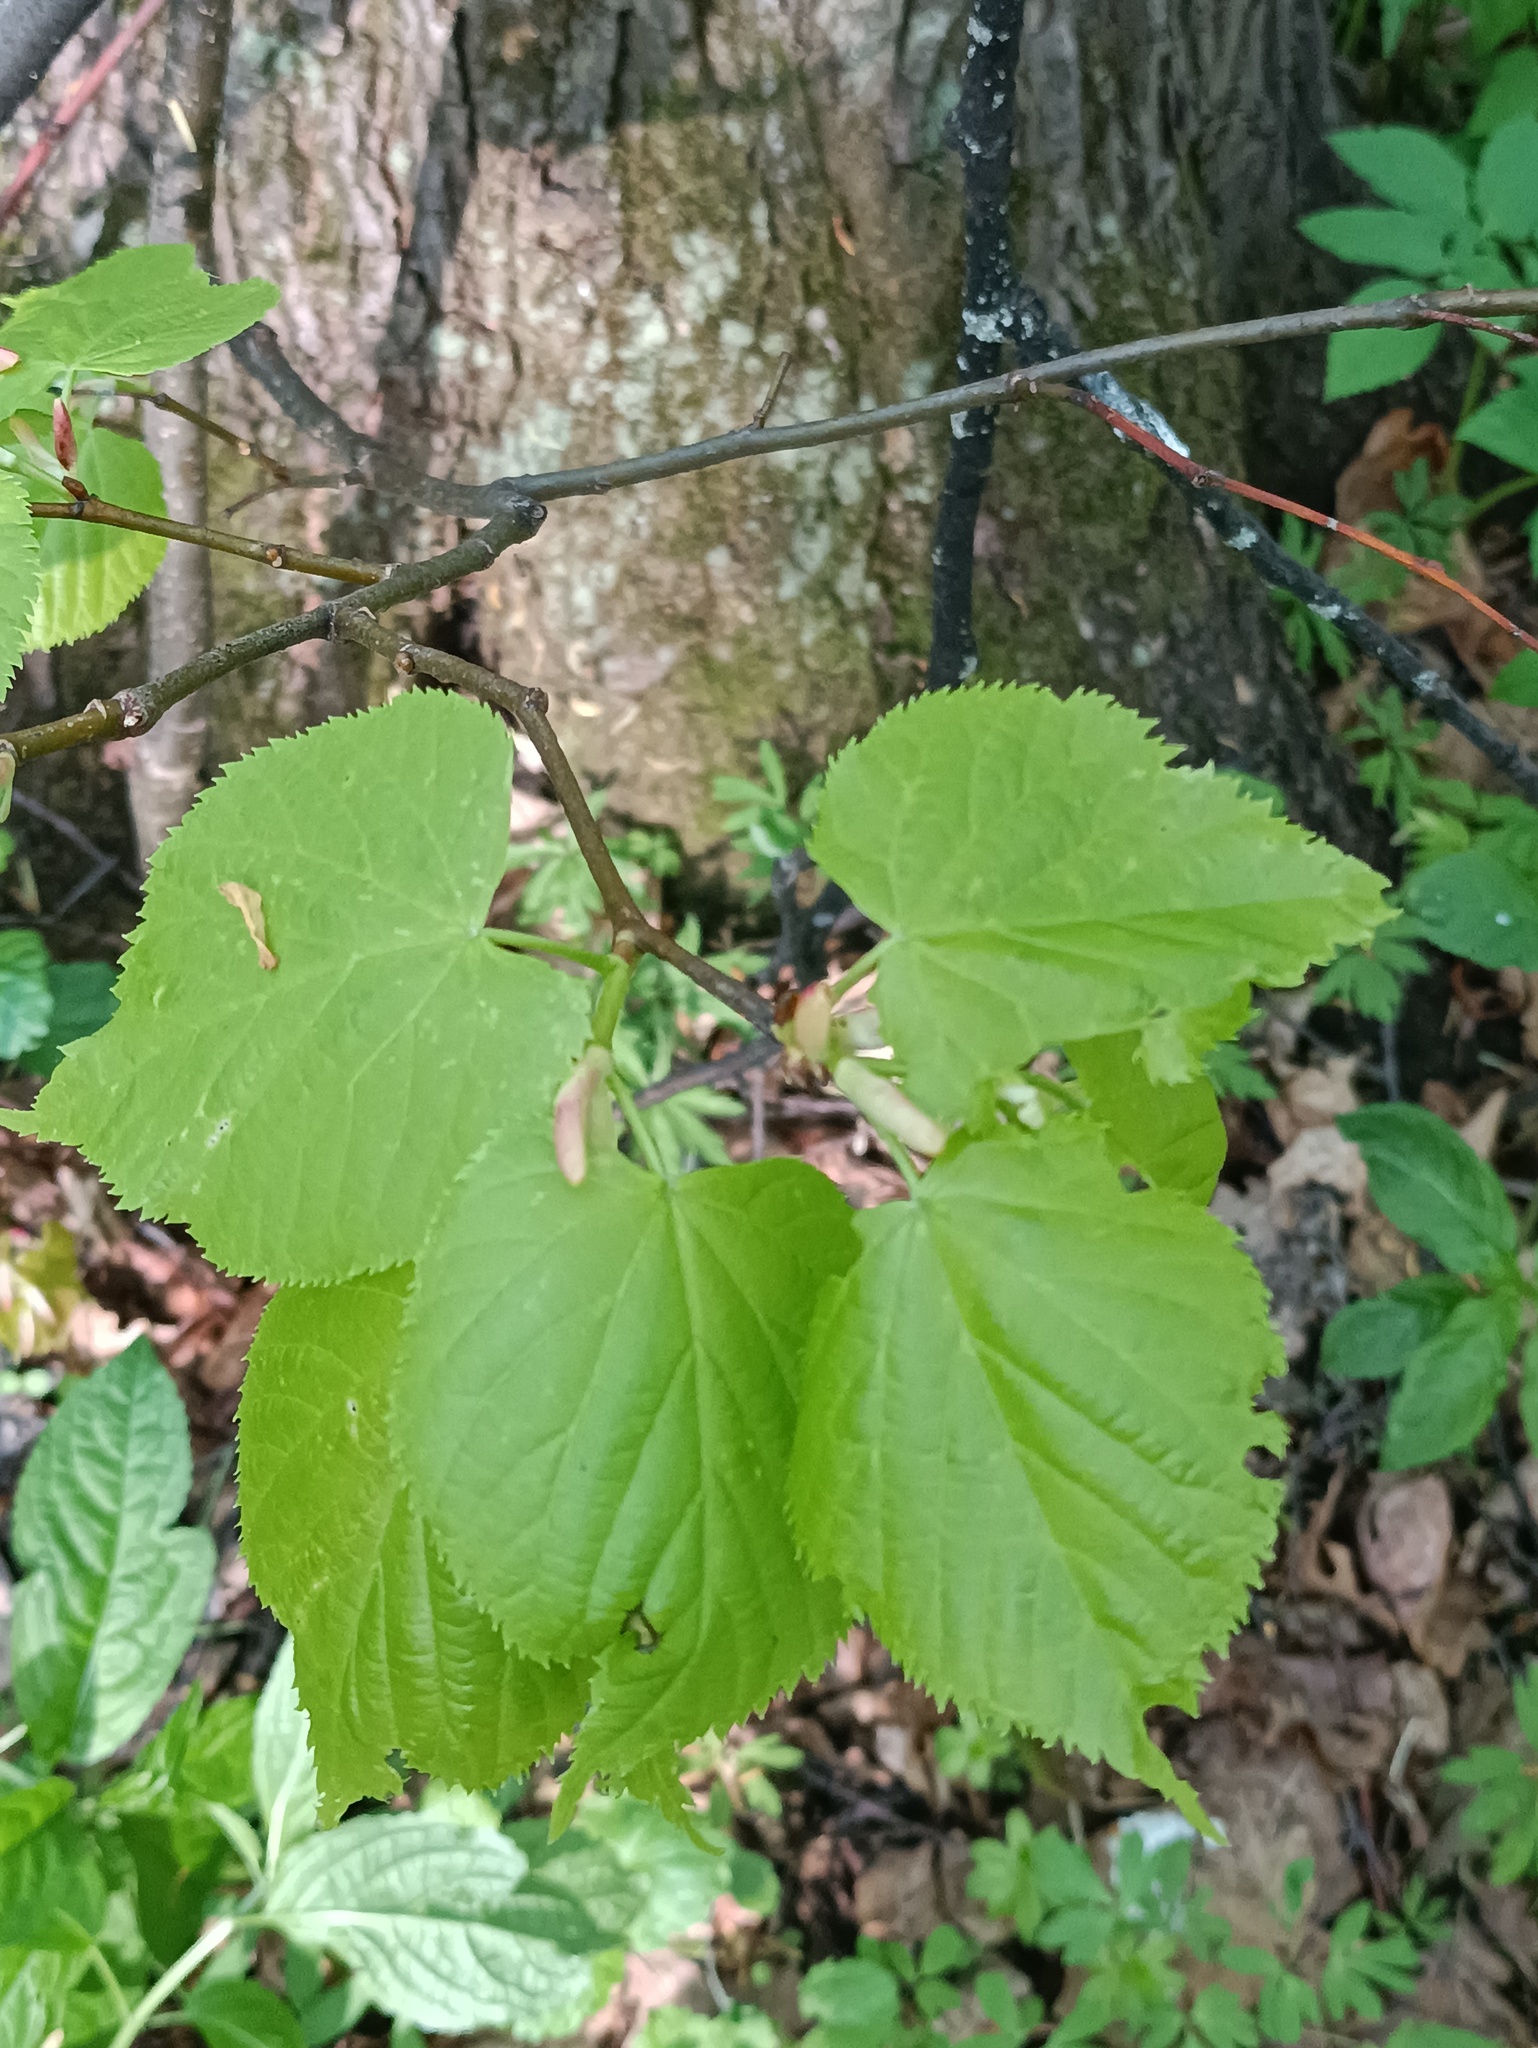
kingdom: Plantae
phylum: Tracheophyta
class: Magnoliopsida
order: Malvales
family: Malvaceae
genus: Tilia
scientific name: Tilia cordata
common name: Small-leaved lime
